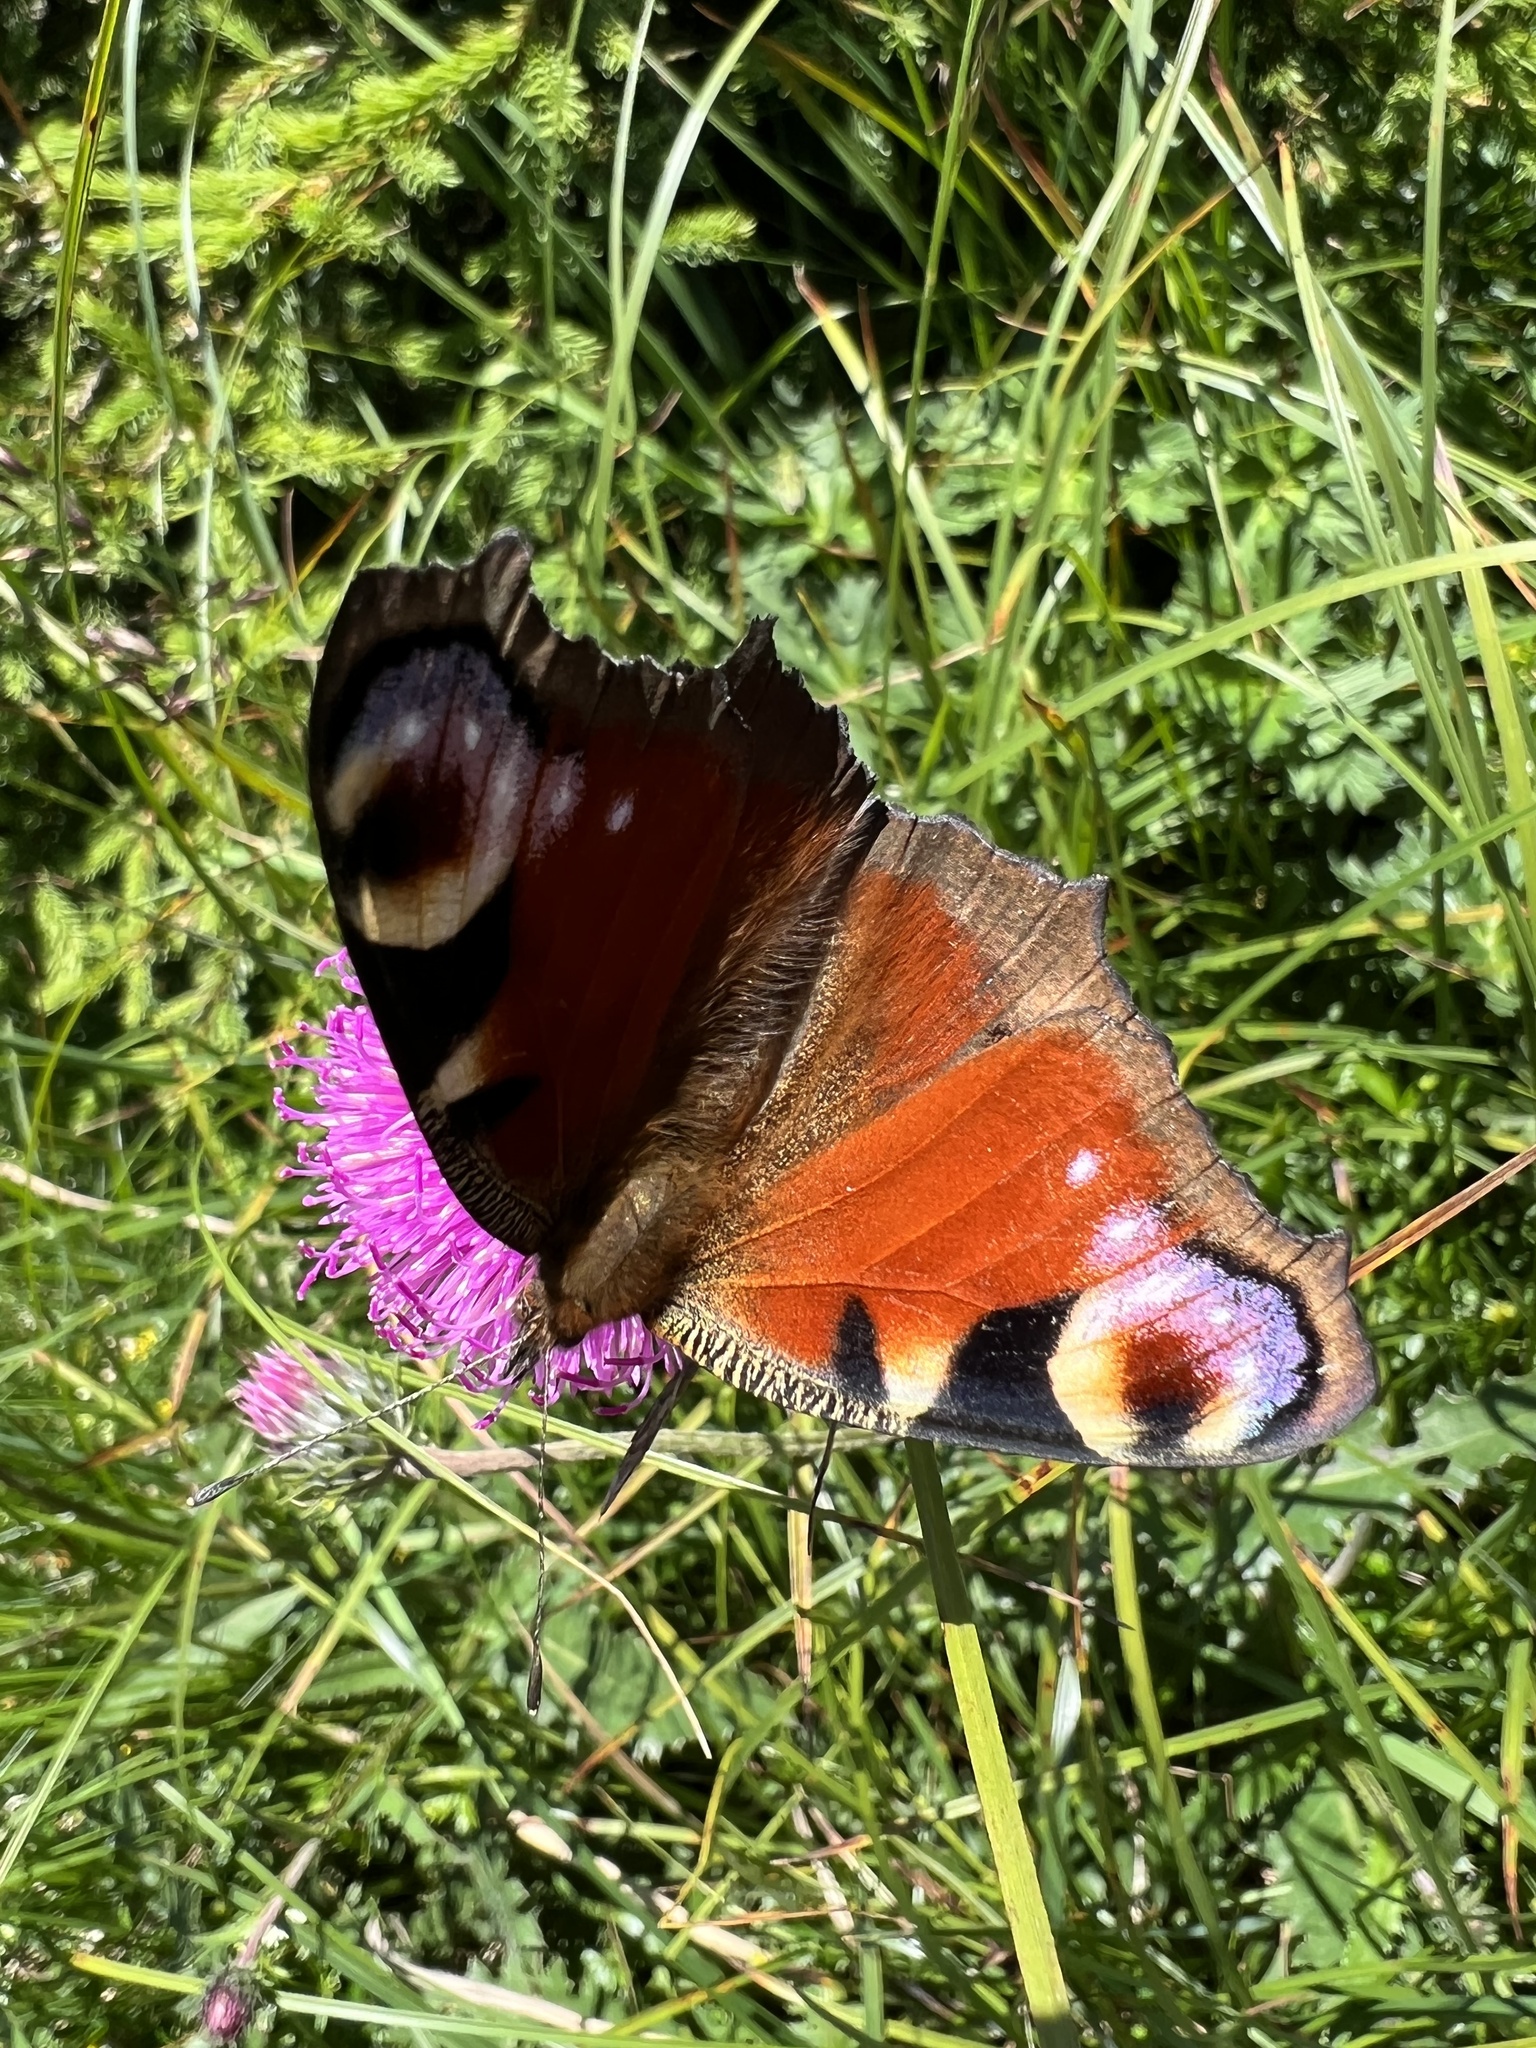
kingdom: Animalia
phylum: Arthropoda
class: Insecta
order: Lepidoptera
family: Nymphalidae
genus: Aglais
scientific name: Aglais io
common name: Peacock
